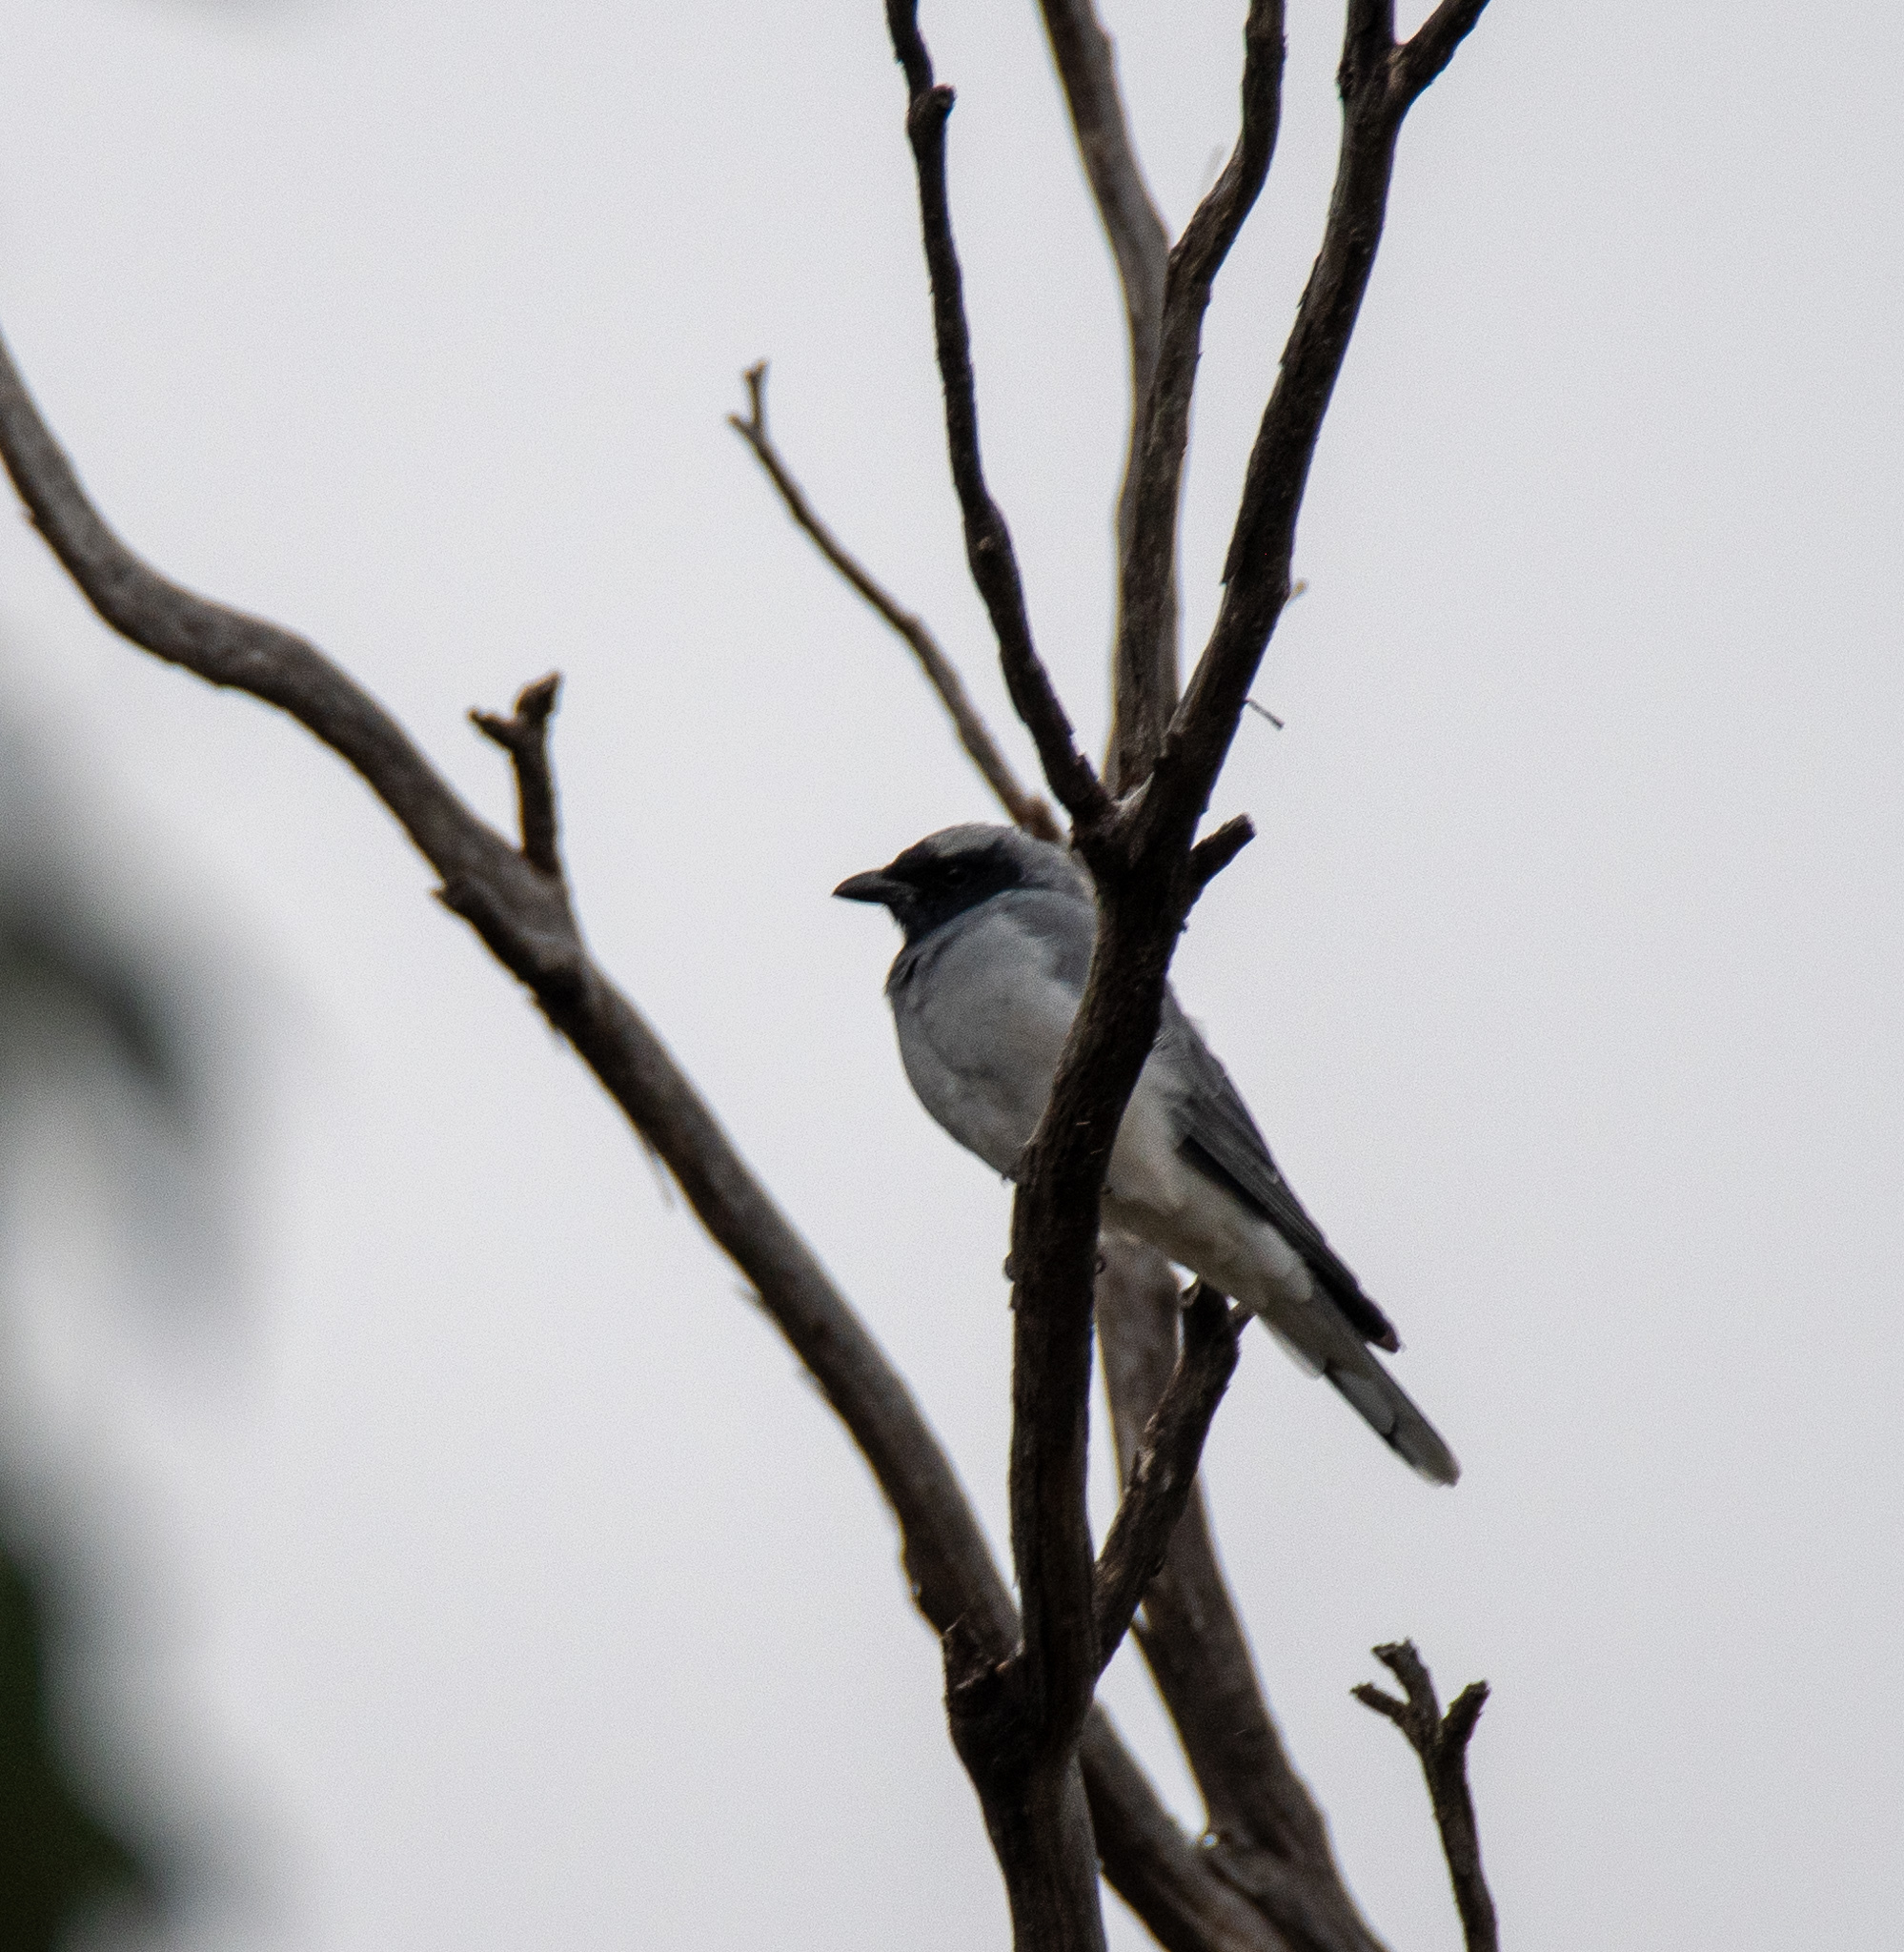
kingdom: Animalia
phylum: Chordata
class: Aves
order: Passeriformes
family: Campephagidae
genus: Coracina
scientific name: Coracina novaehollandiae
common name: Black-faced cuckooshrike
